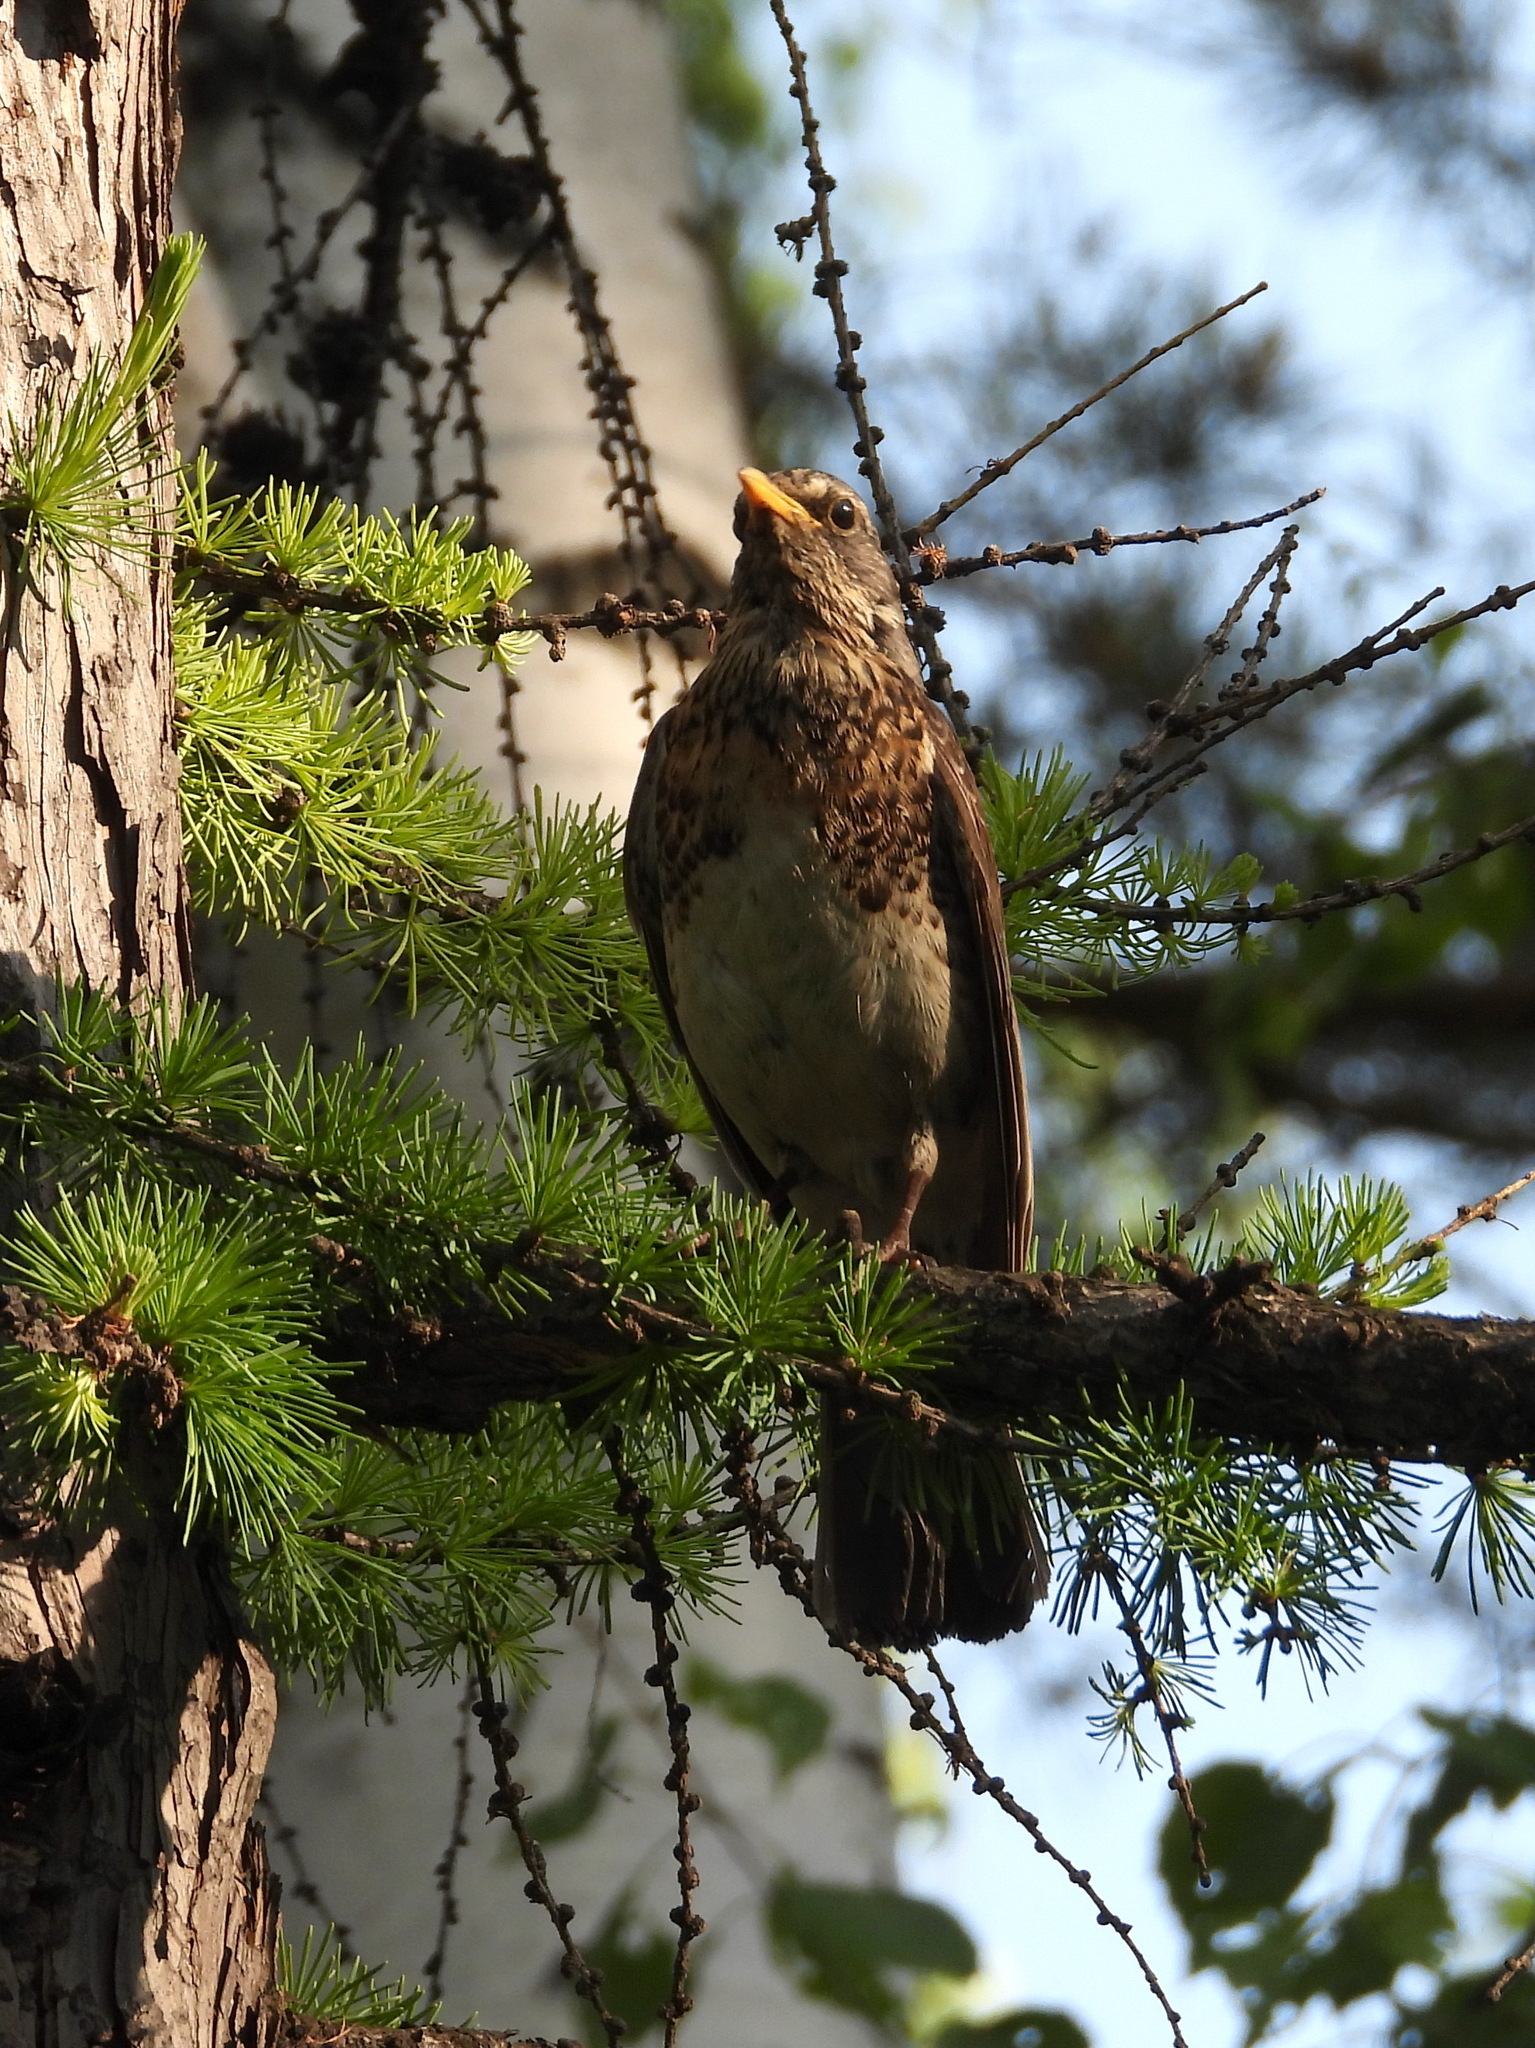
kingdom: Animalia
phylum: Chordata
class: Aves
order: Passeriformes
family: Turdidae
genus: Turdus
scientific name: Turdus pilaris
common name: Fieldfare
